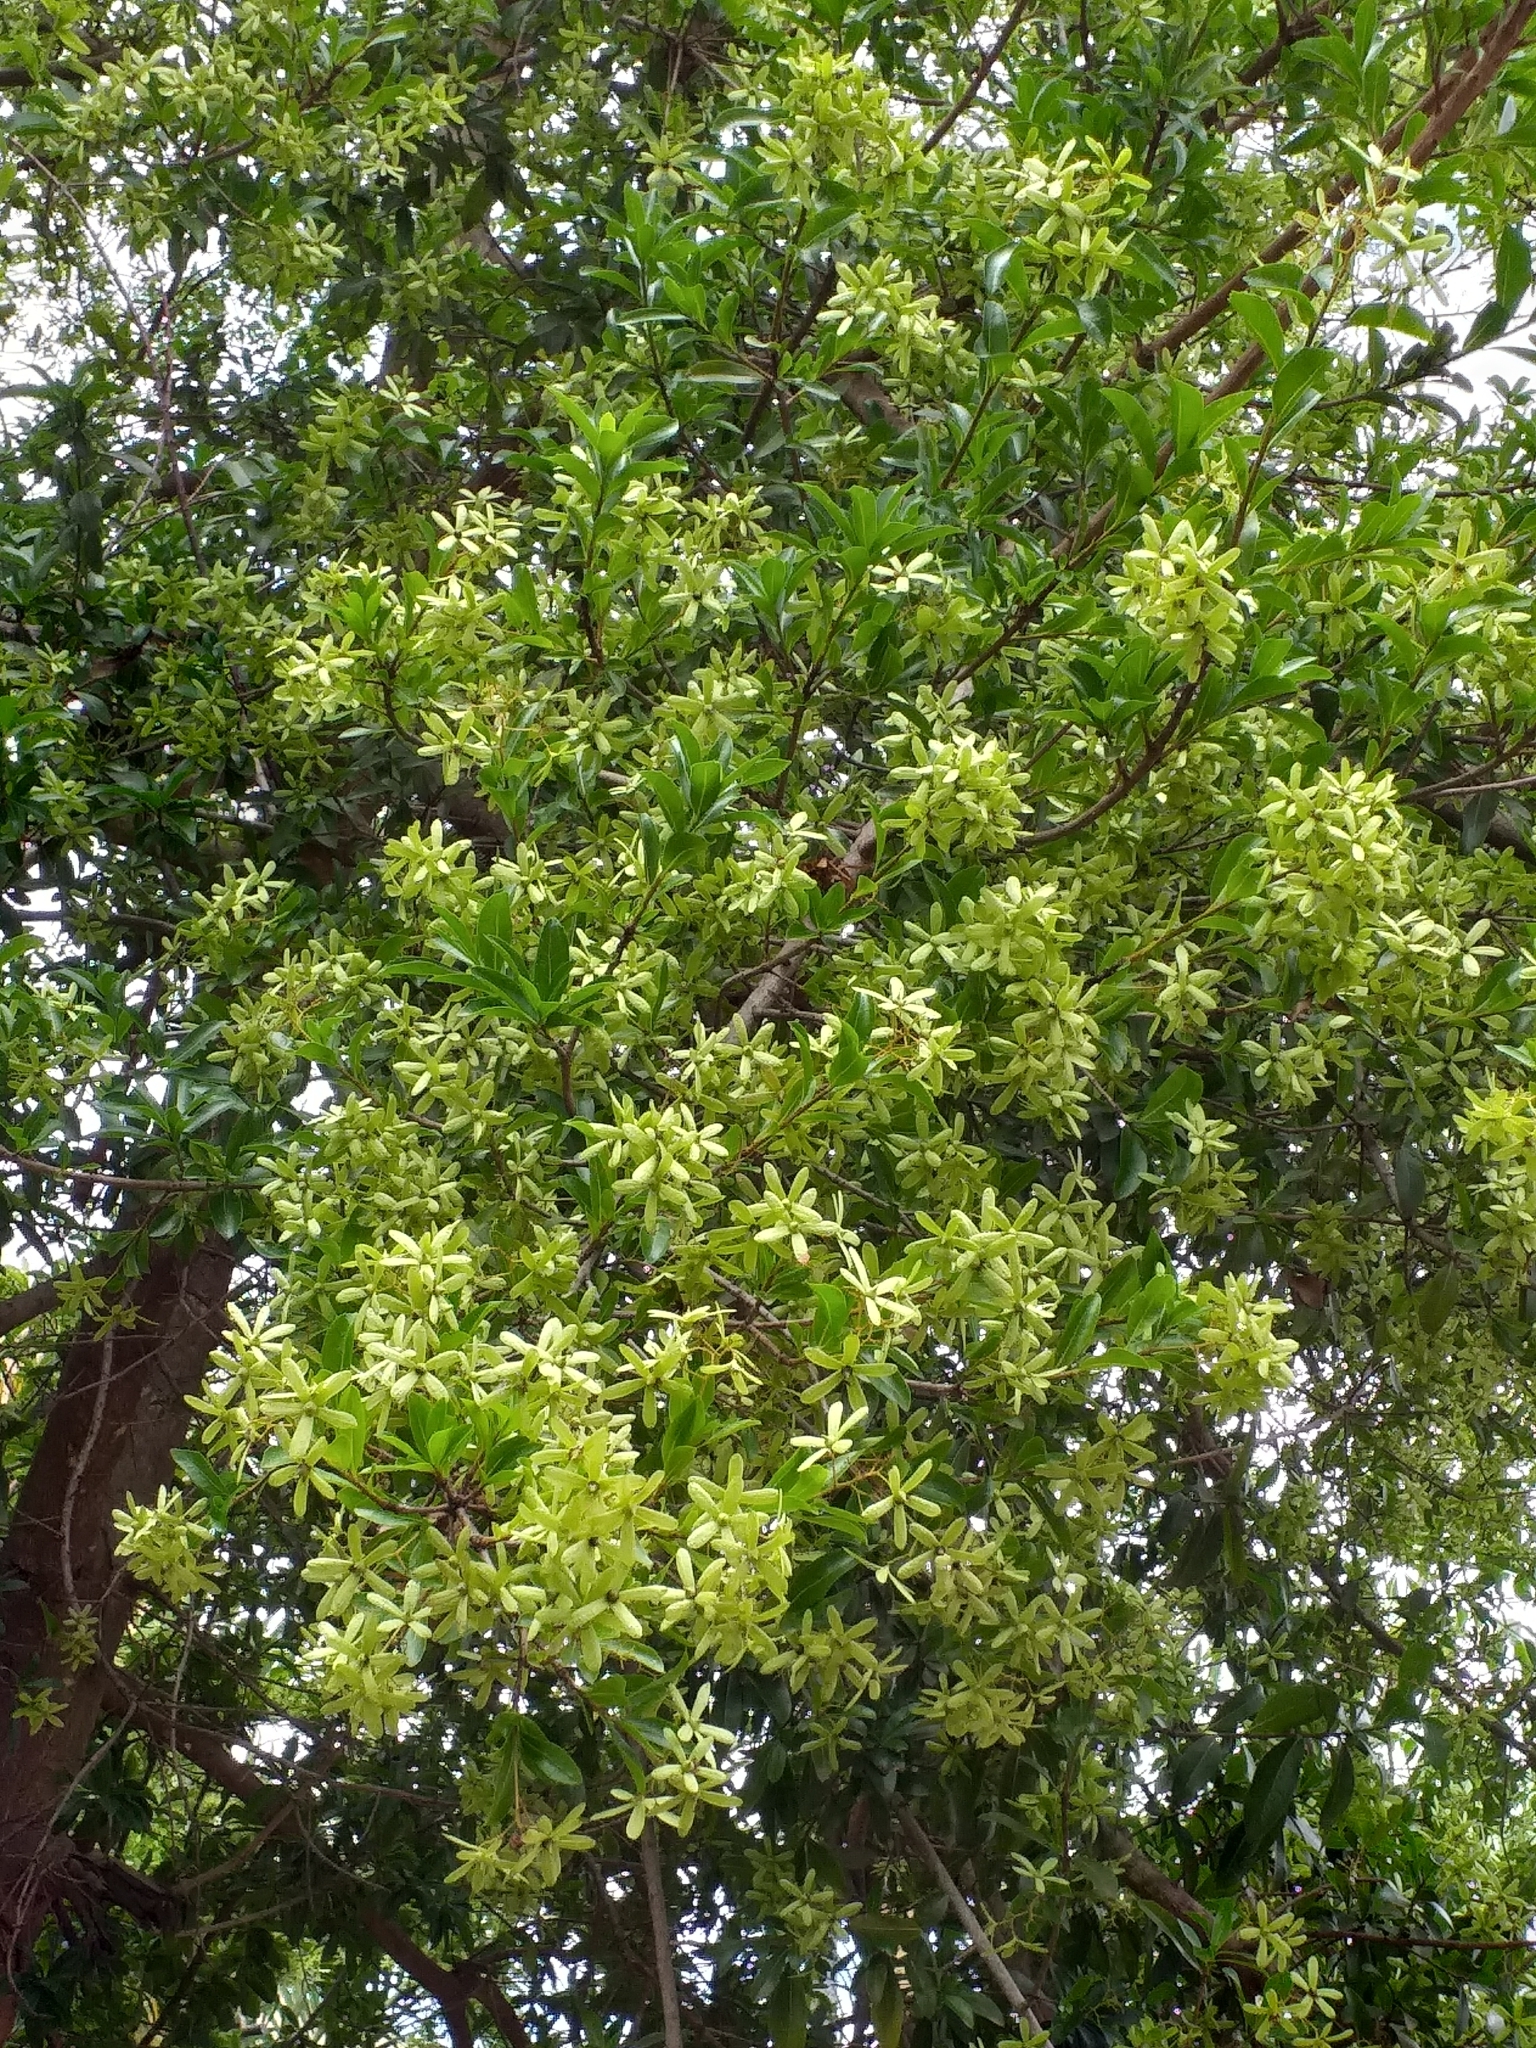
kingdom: Plantae
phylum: Tracheophyta
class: Magnoliopsida
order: Boraginales
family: Cordiaceae
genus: Cordia
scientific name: Cordia americana
